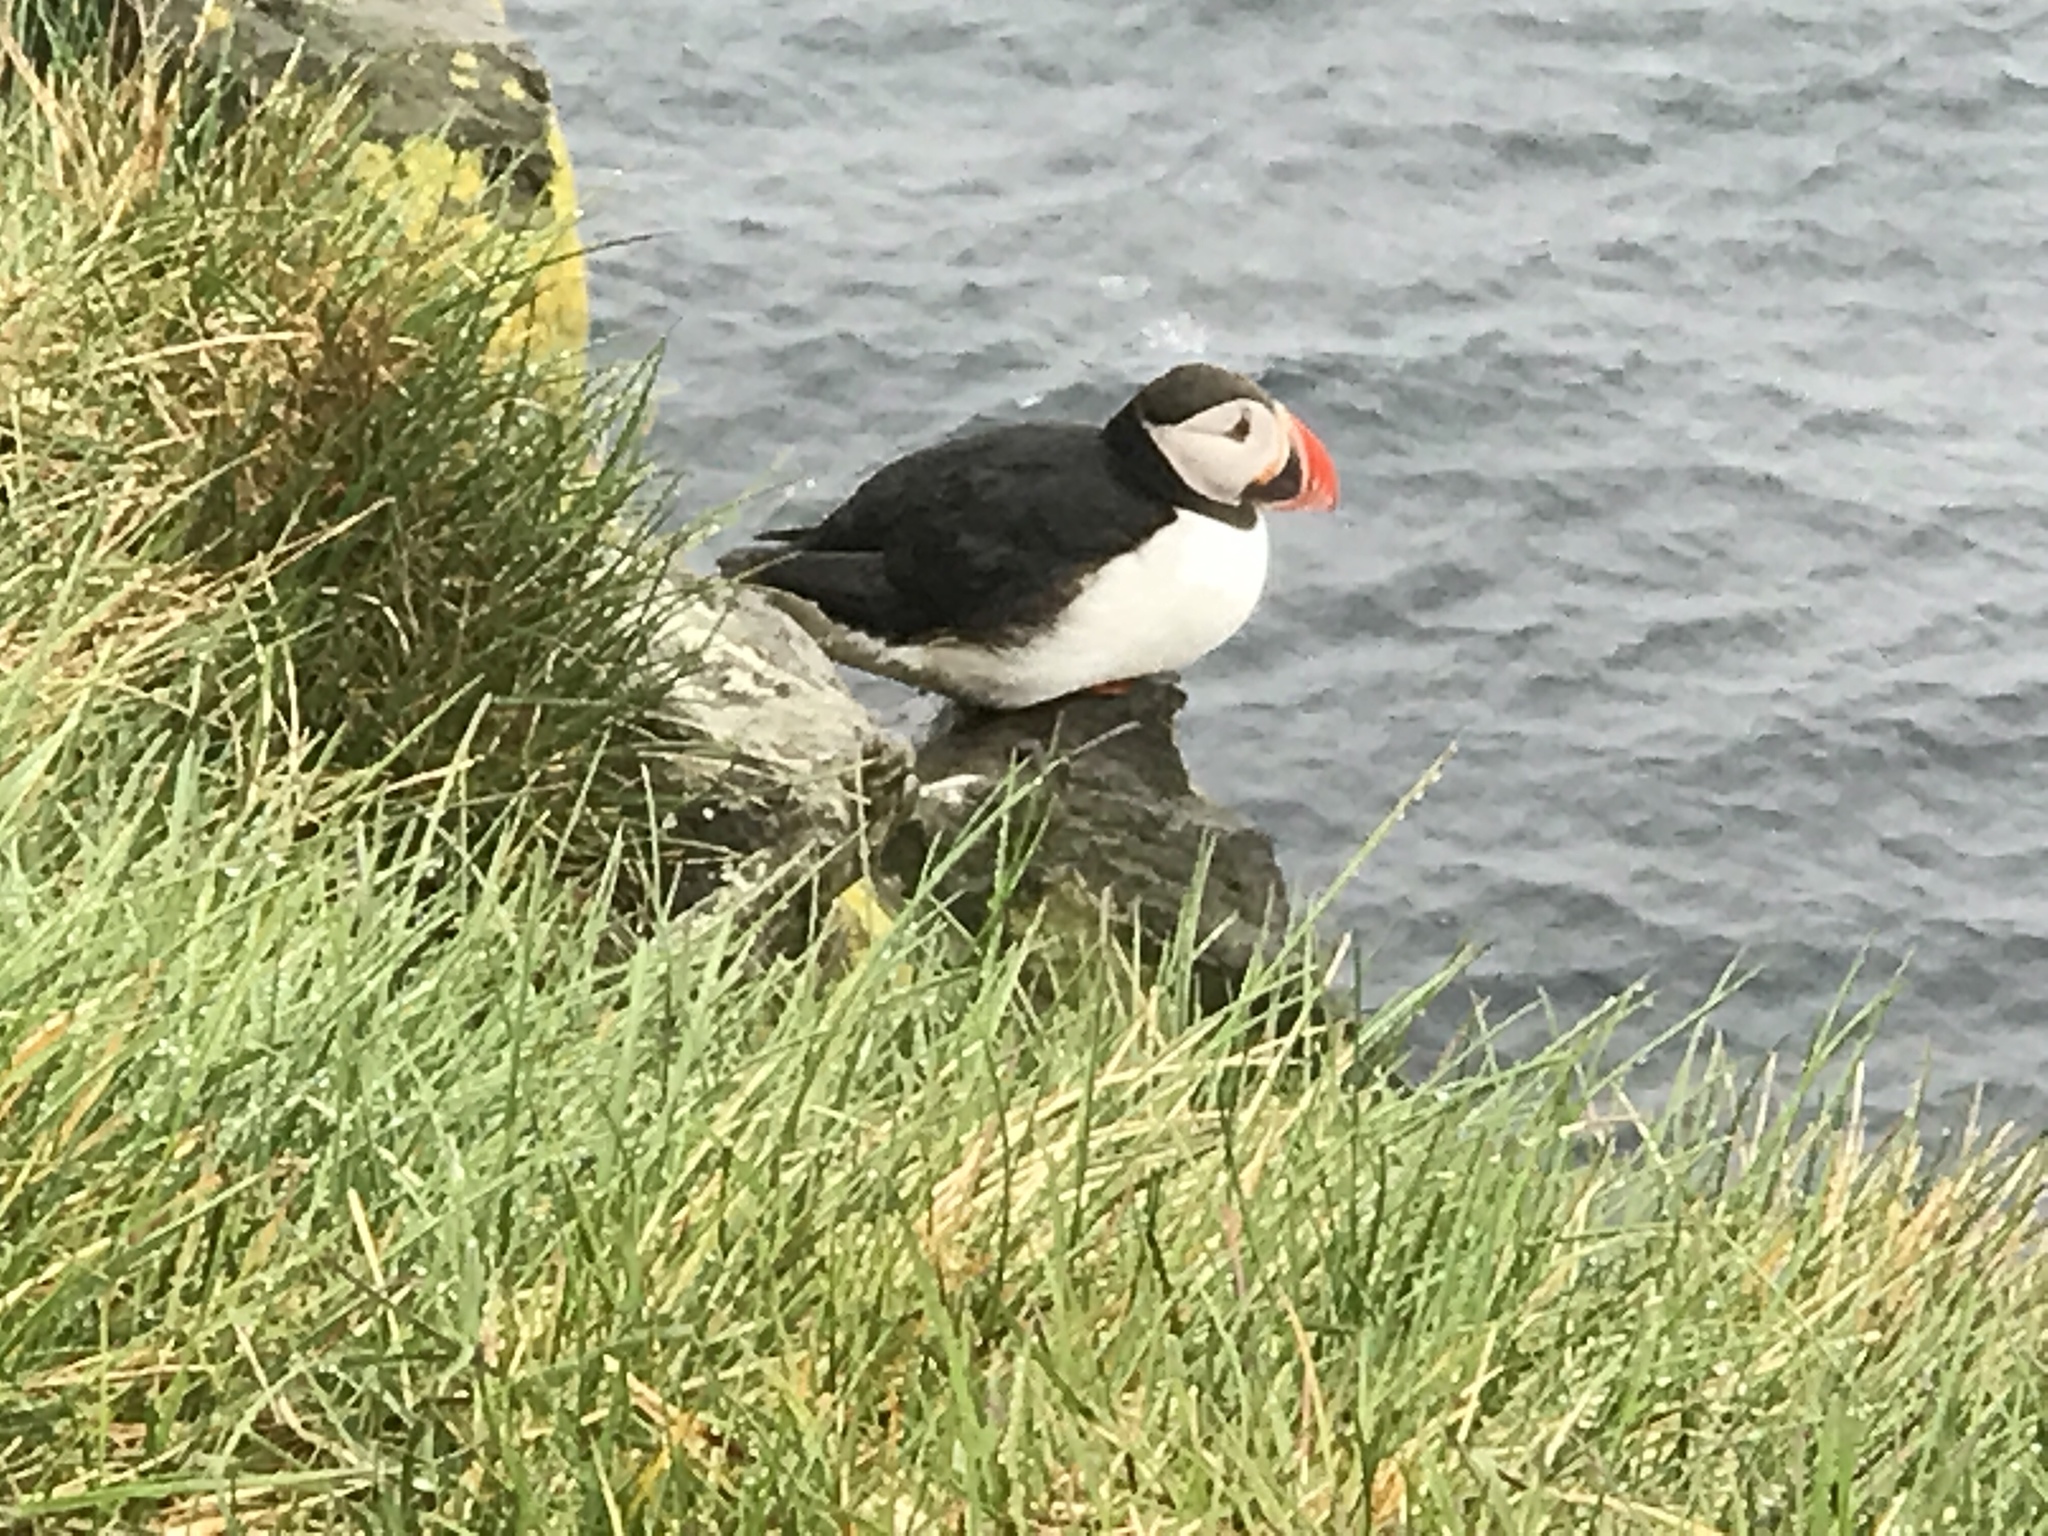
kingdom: Animalia
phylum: Chordata
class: Aves
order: Charadriiformes
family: Alcidae
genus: Fratercula
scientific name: Fratercula arctica
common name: Atlantic puffin
